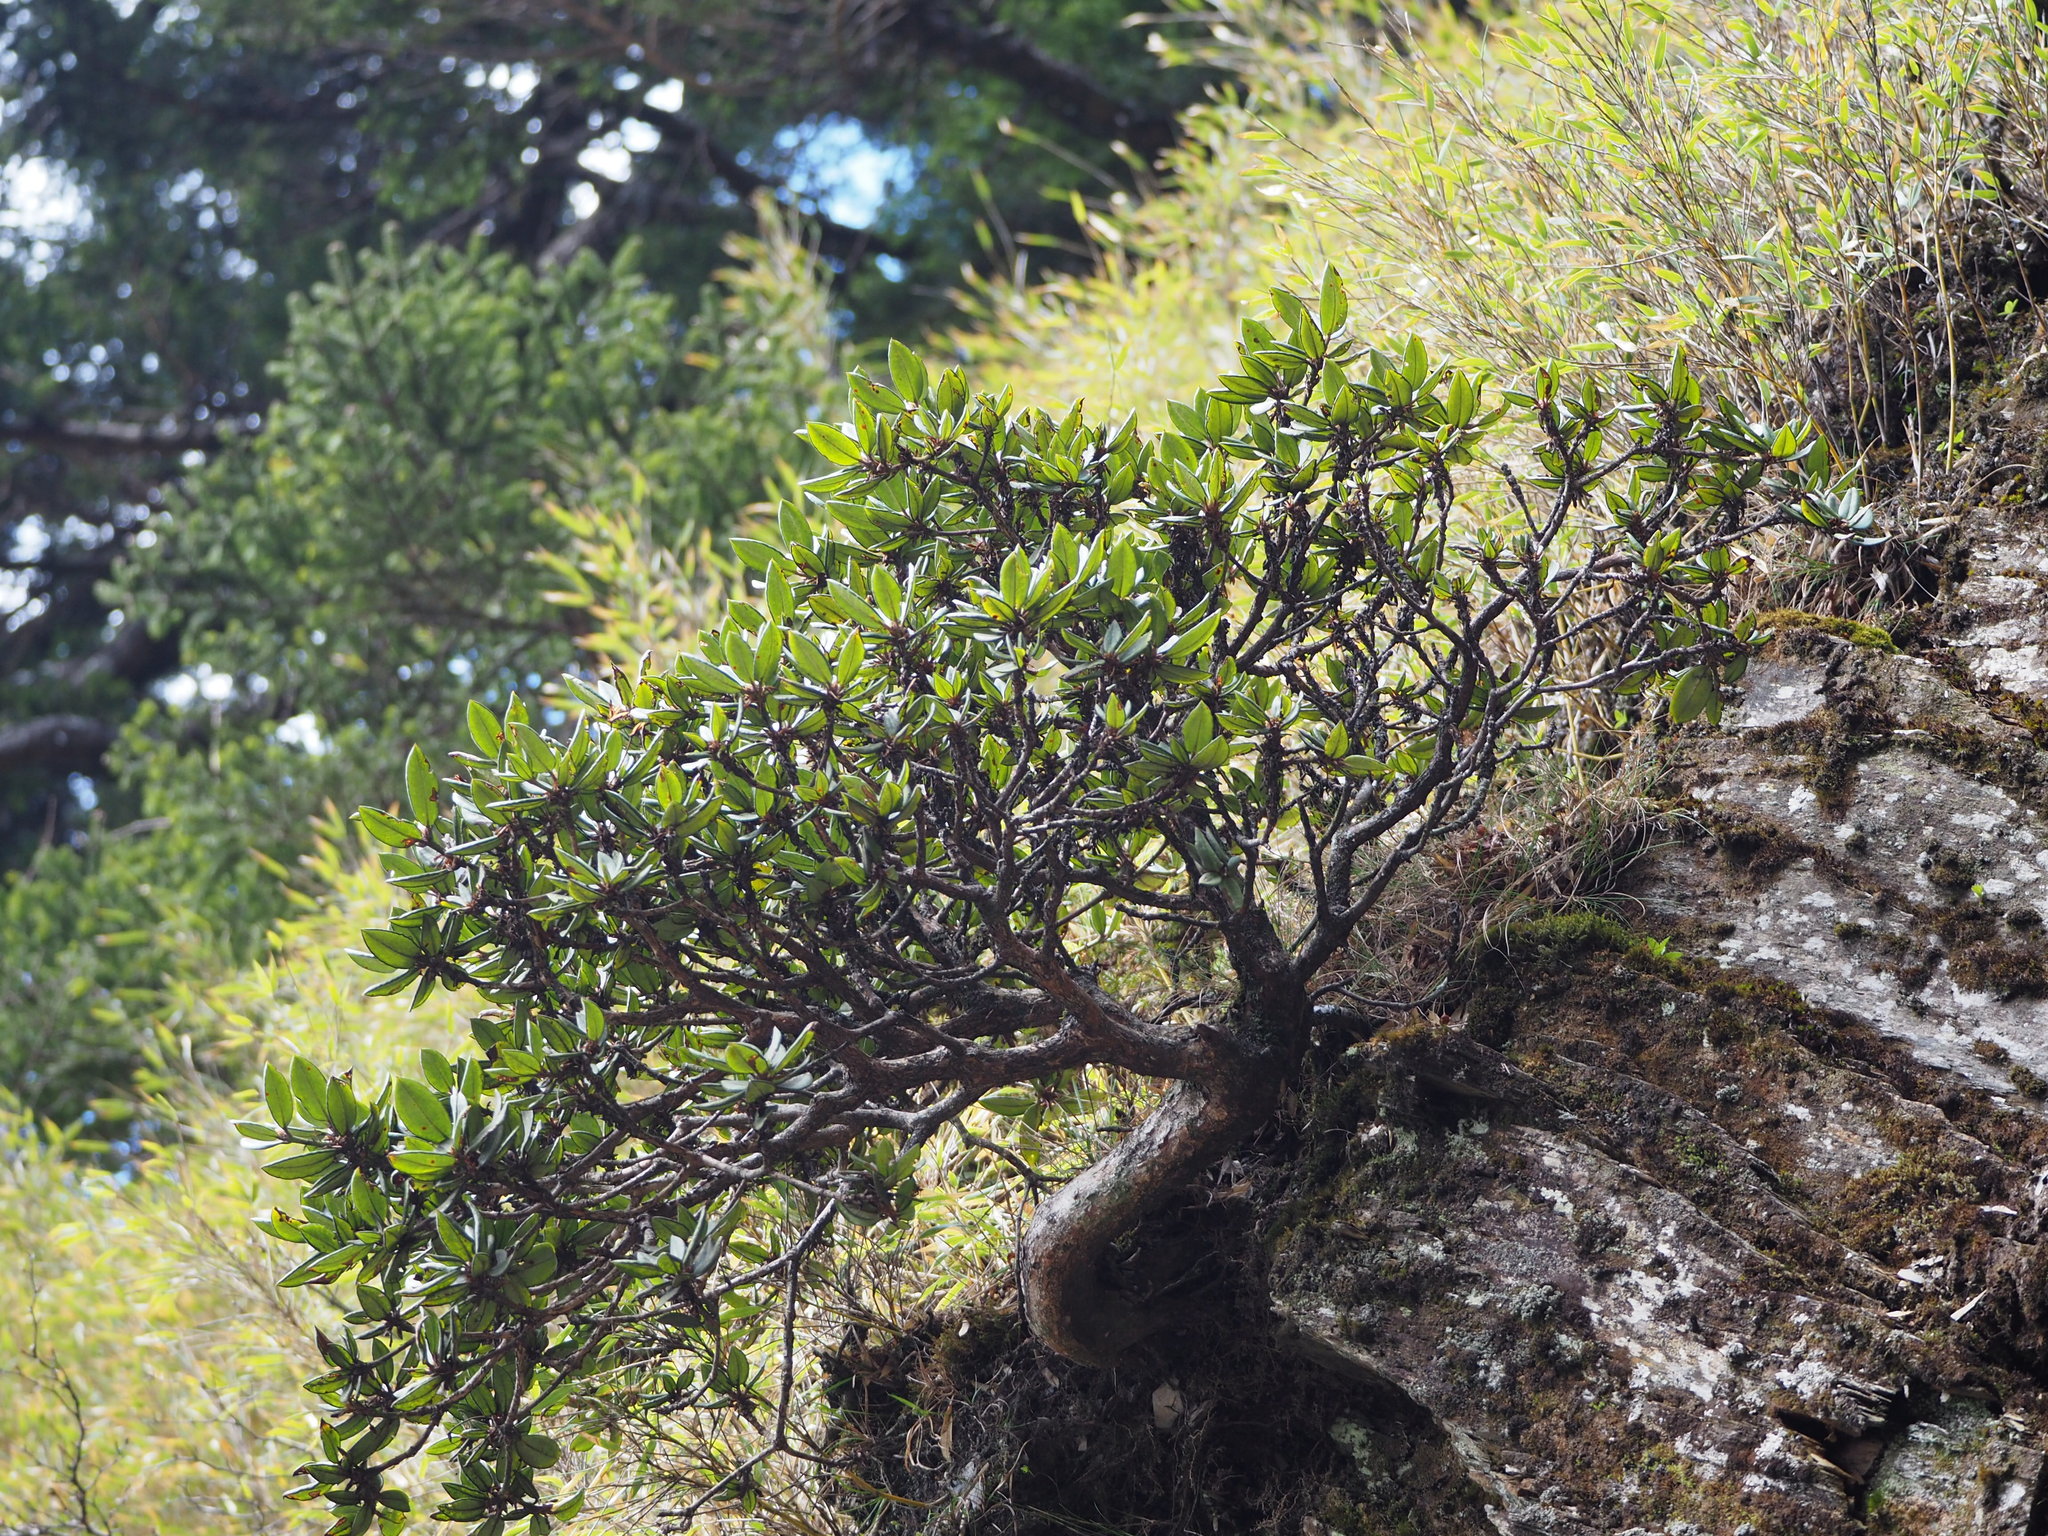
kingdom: Plantae
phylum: Tracheophyta
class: Magnoliopsida
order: Ericales
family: Ericaceae
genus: Rhododendron
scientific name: Rhododendron pseudochrysanthum
